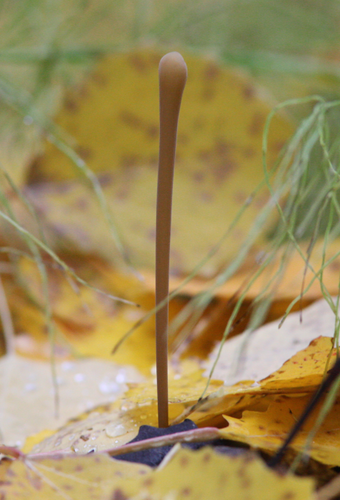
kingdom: Fungi
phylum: Basidiomycota
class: Agaricomycetes
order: Agaricales
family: Typhulaceae
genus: Typhula
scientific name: Typhula fistulosa
